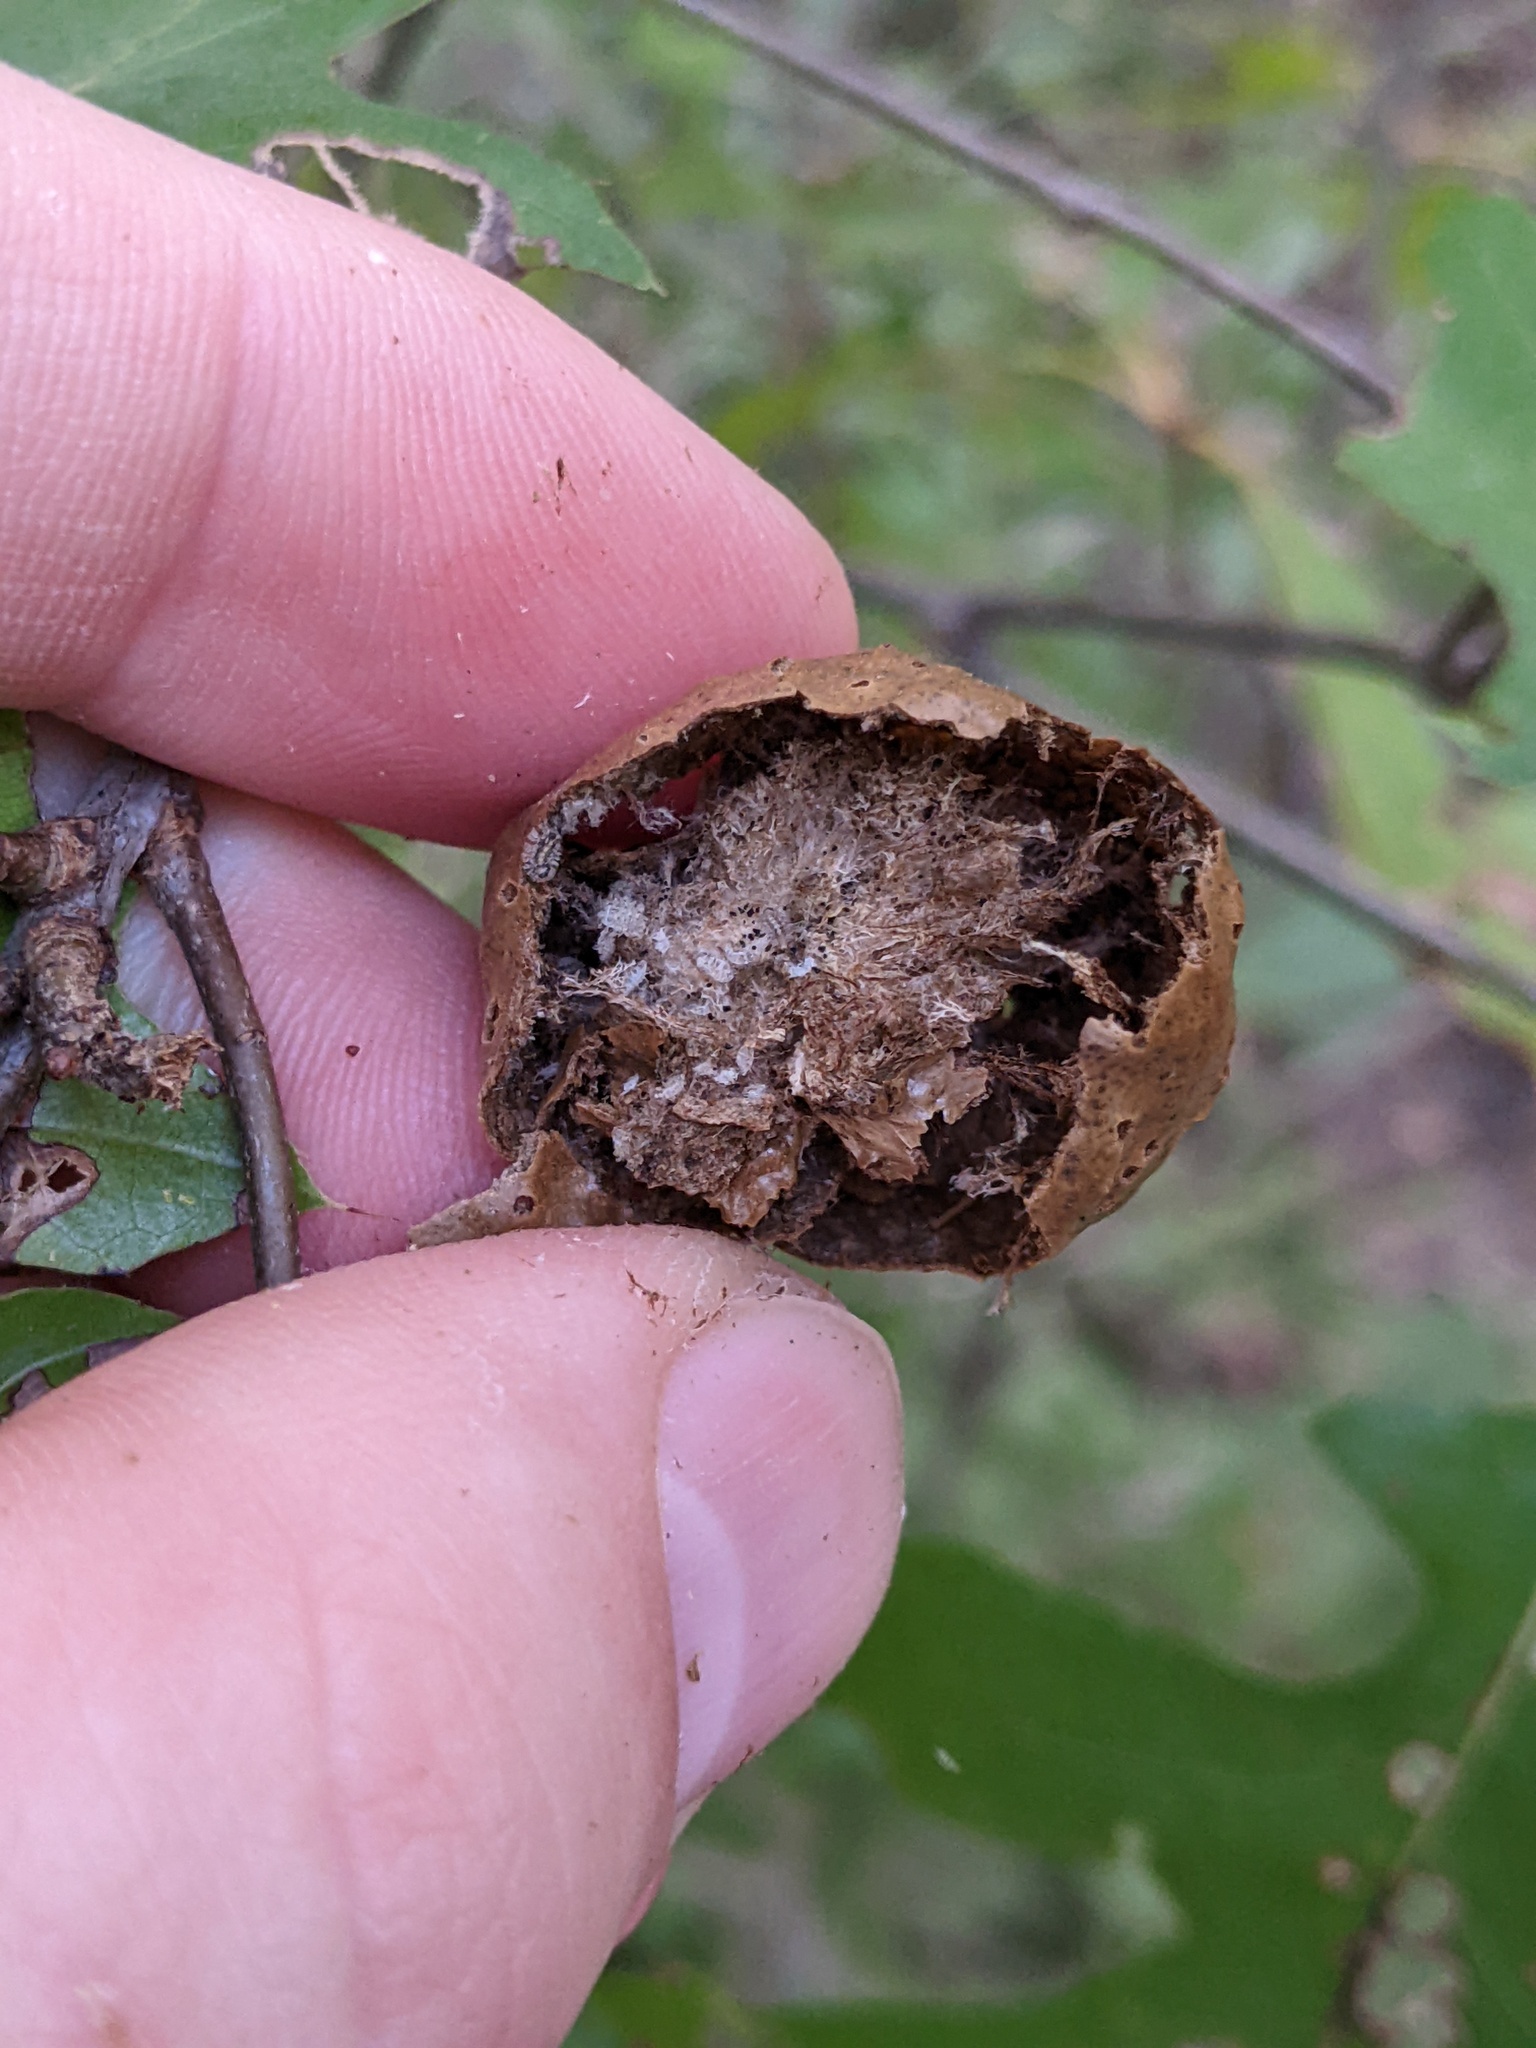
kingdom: Animalia
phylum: Arthropoda
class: Insecta
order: Hymenoptera
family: Cynipidae
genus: Amphibolips
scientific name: Amphibolips
